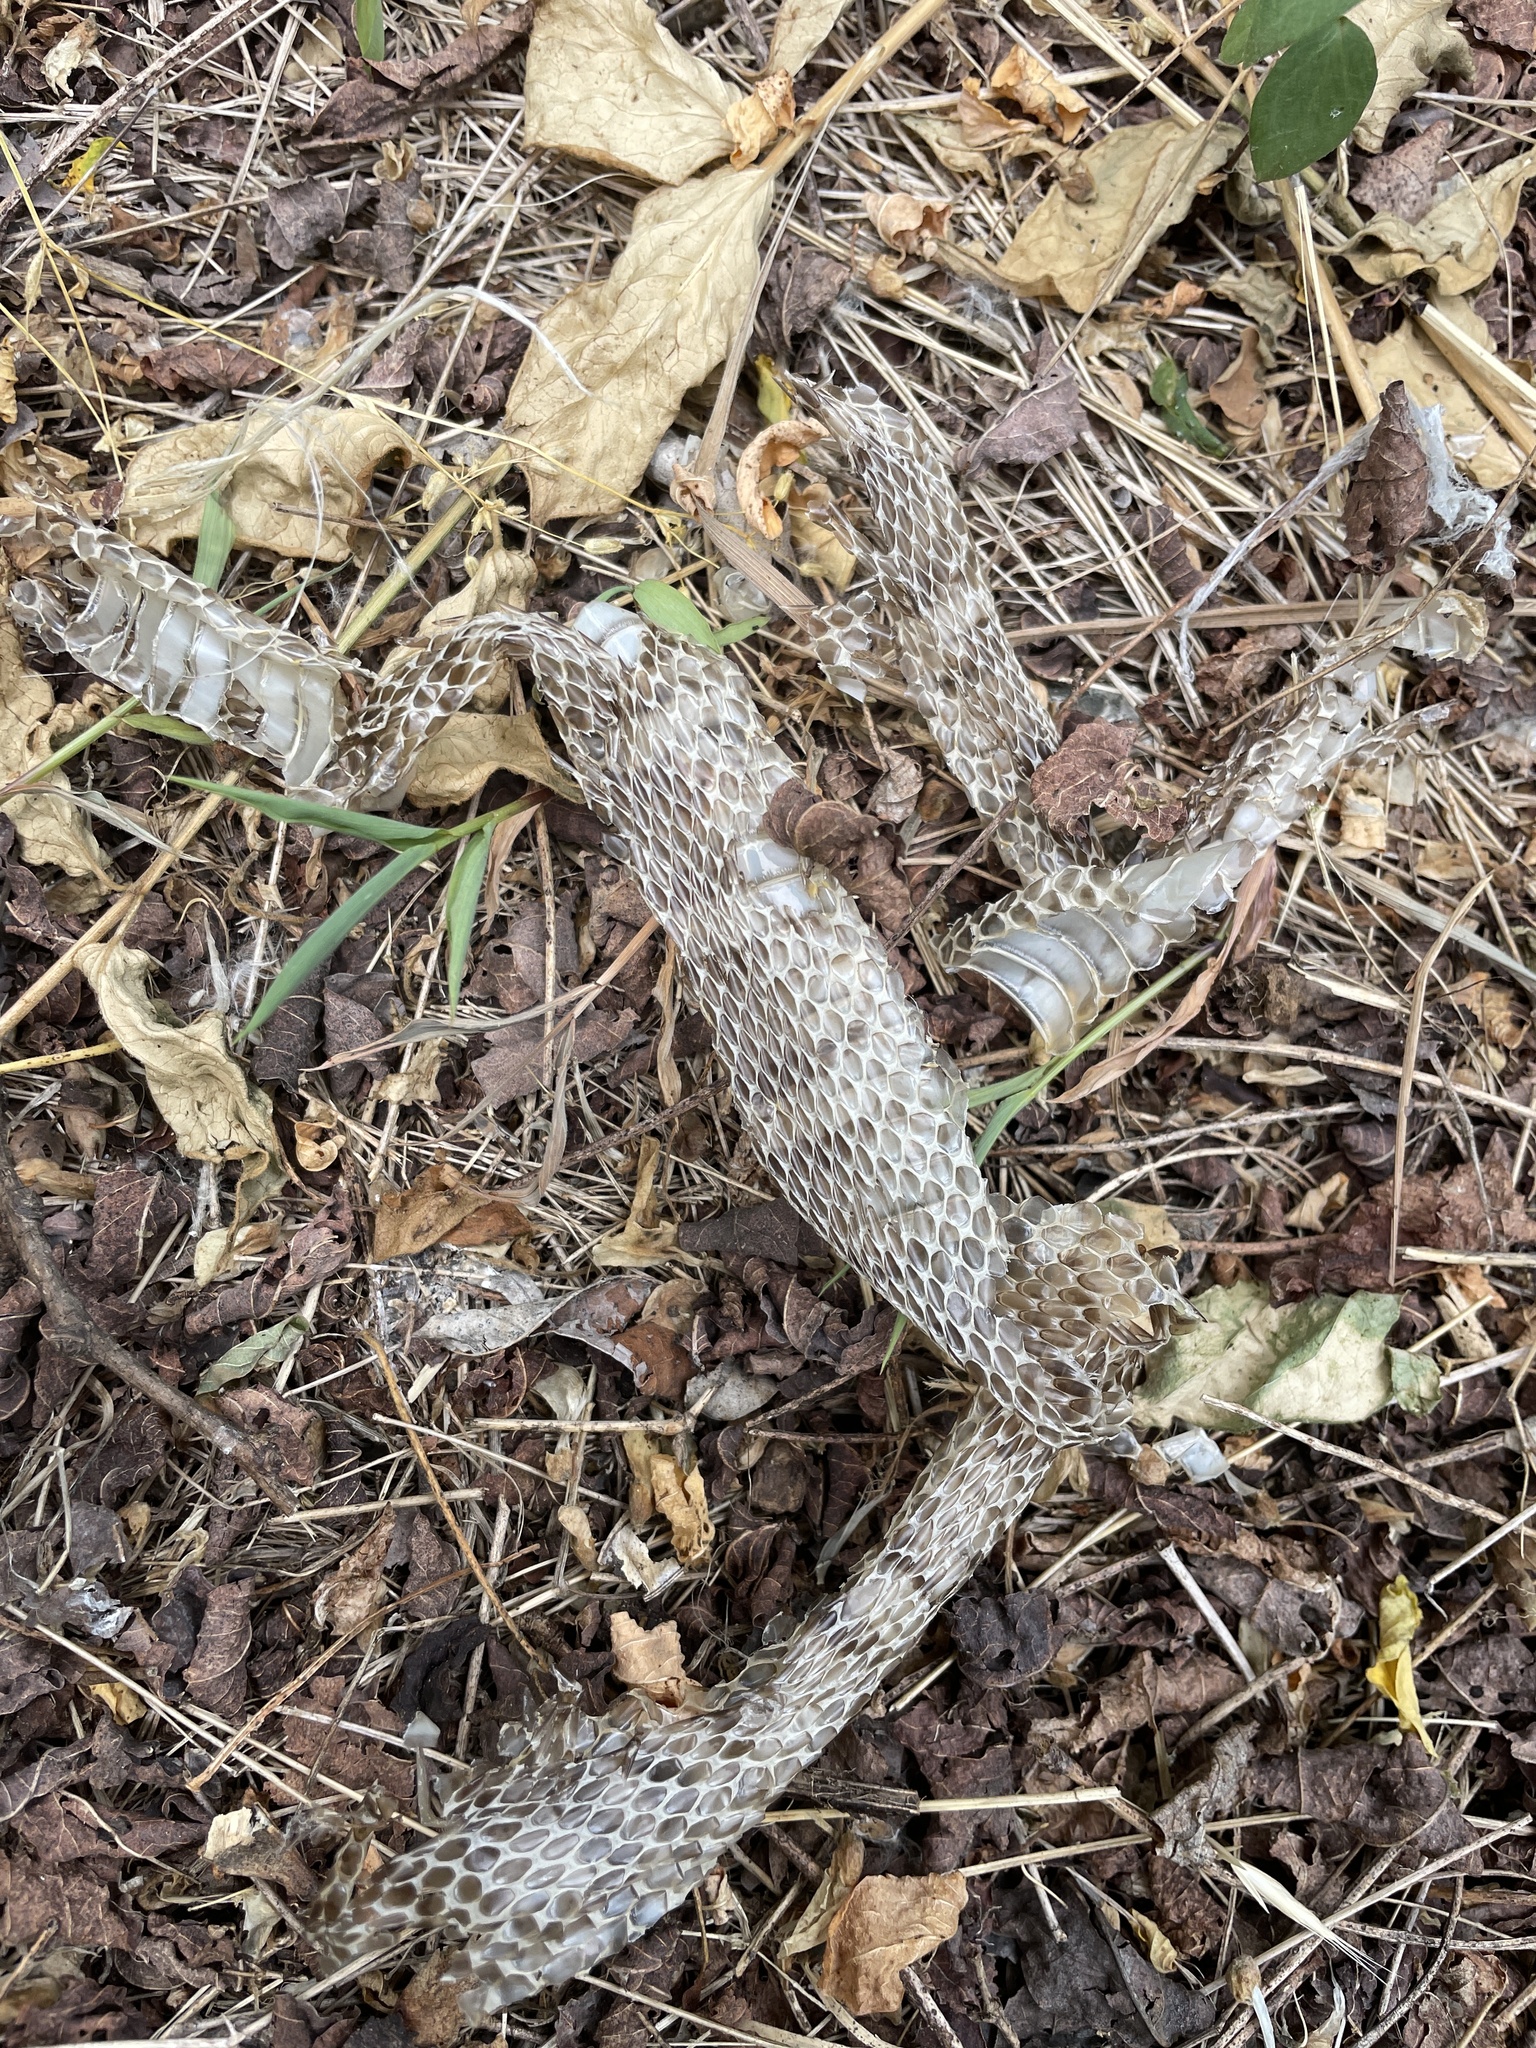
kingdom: Animalia
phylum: Chordata
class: Squamata
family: Colubridae
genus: Lampropeltis
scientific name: Lampropeltis triangulum
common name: Eastern milksnake
